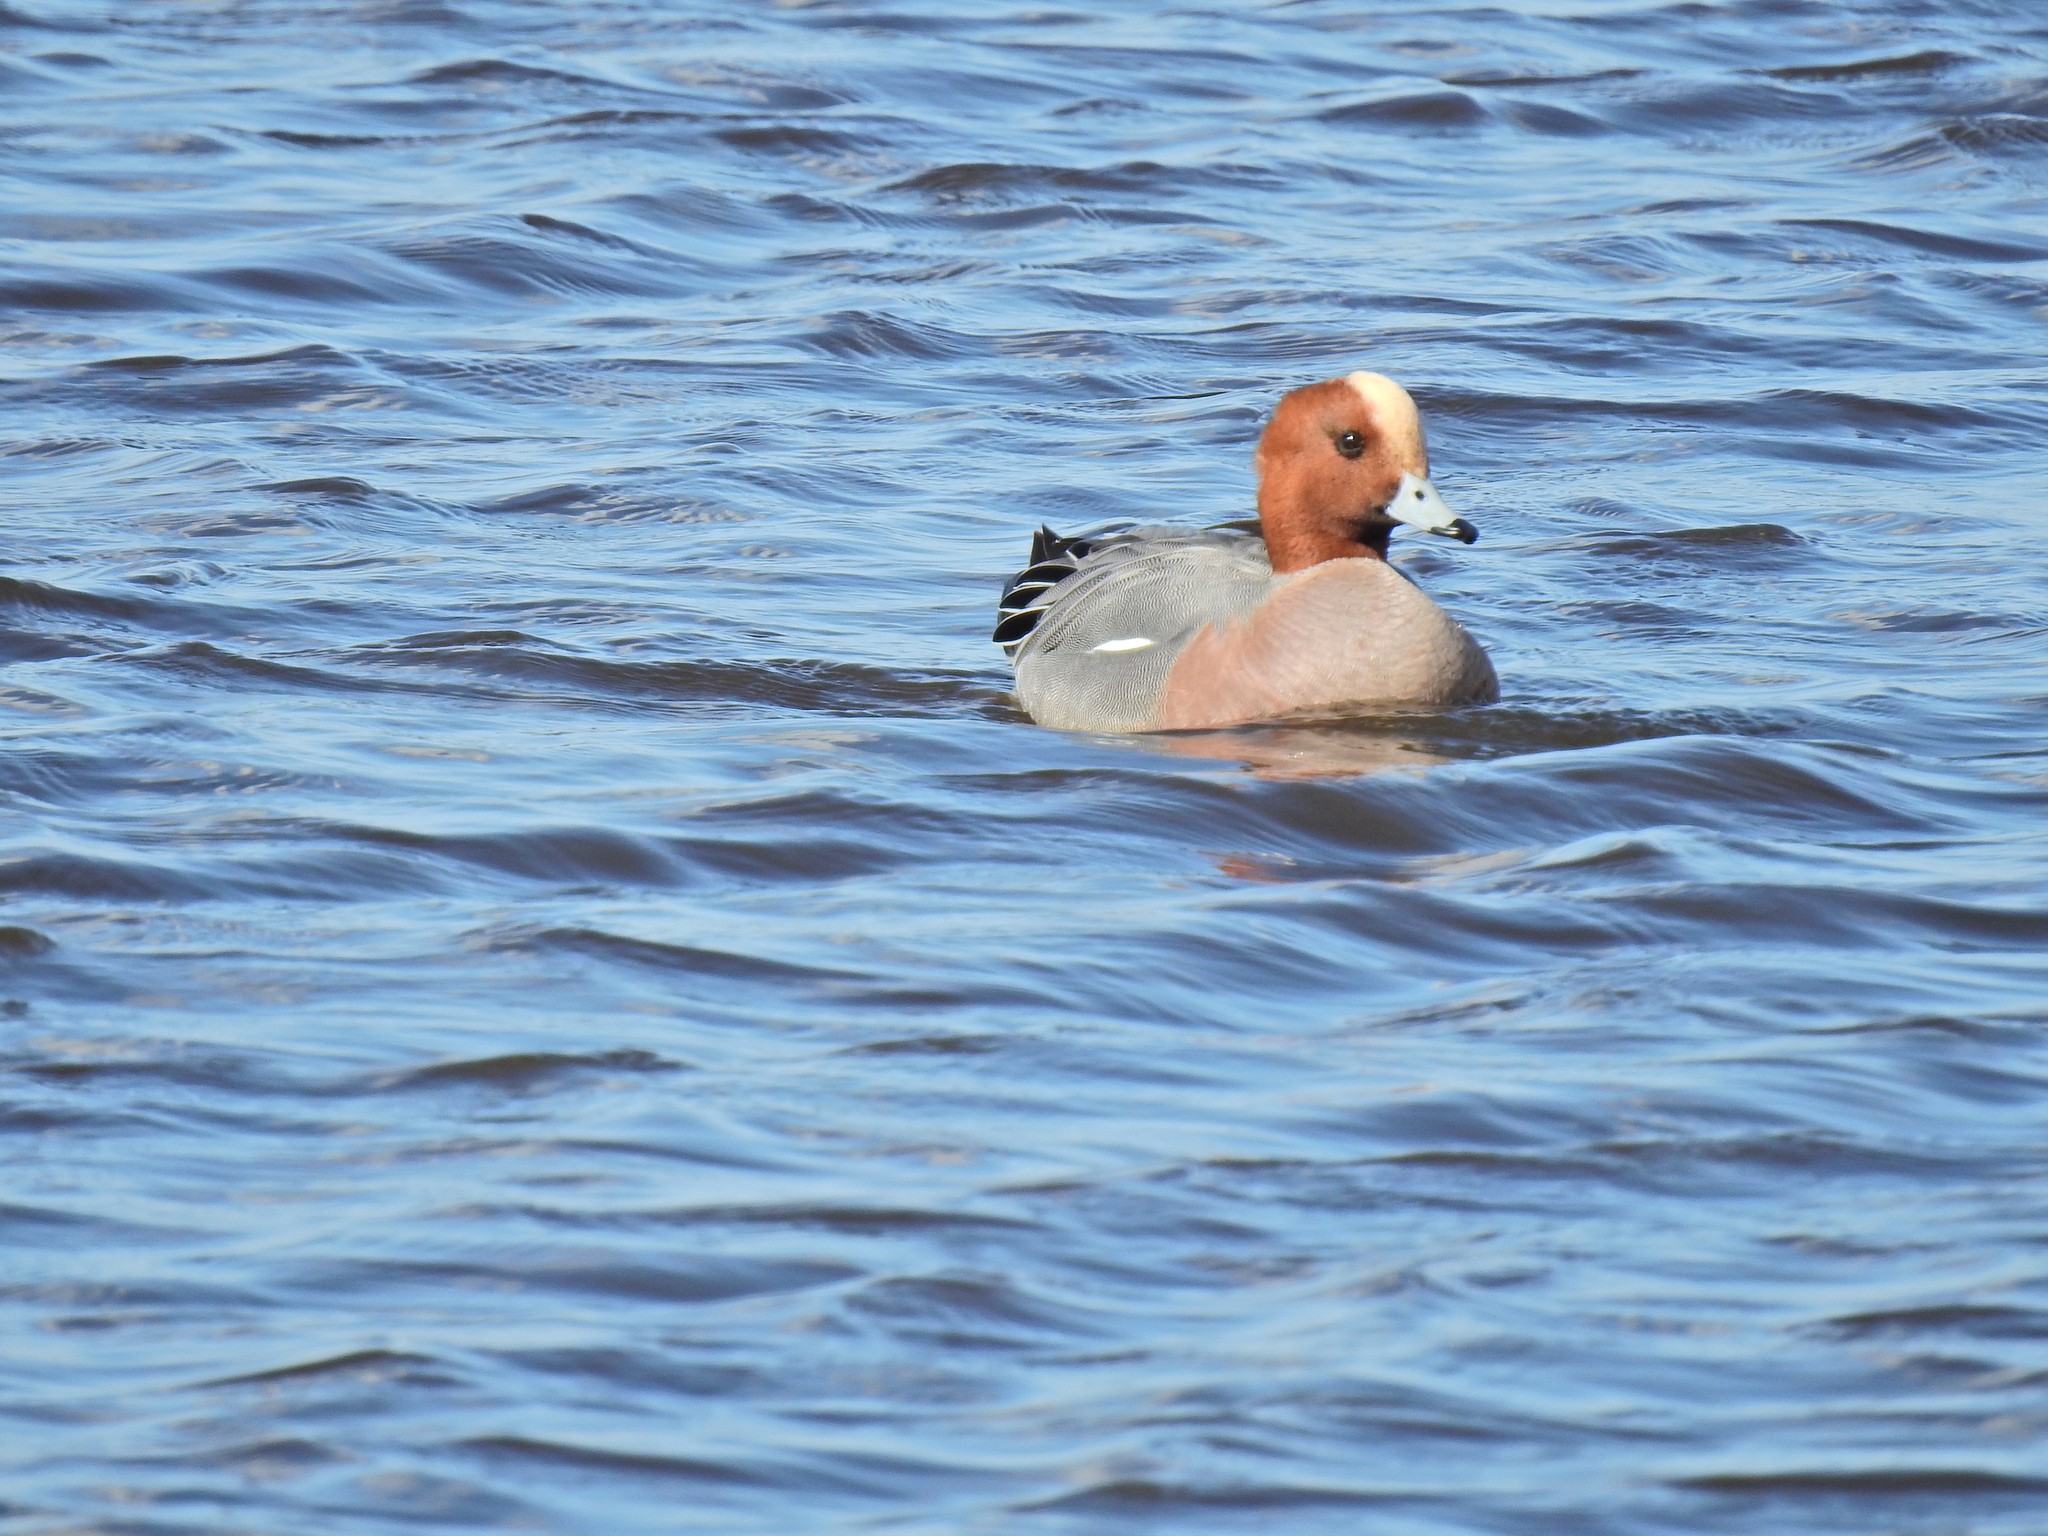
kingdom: Animalia
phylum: Chordata
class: Aves
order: Anseriformes
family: Anatidae
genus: Mareca
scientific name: Mareca penelope
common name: Eurasian wigeon
